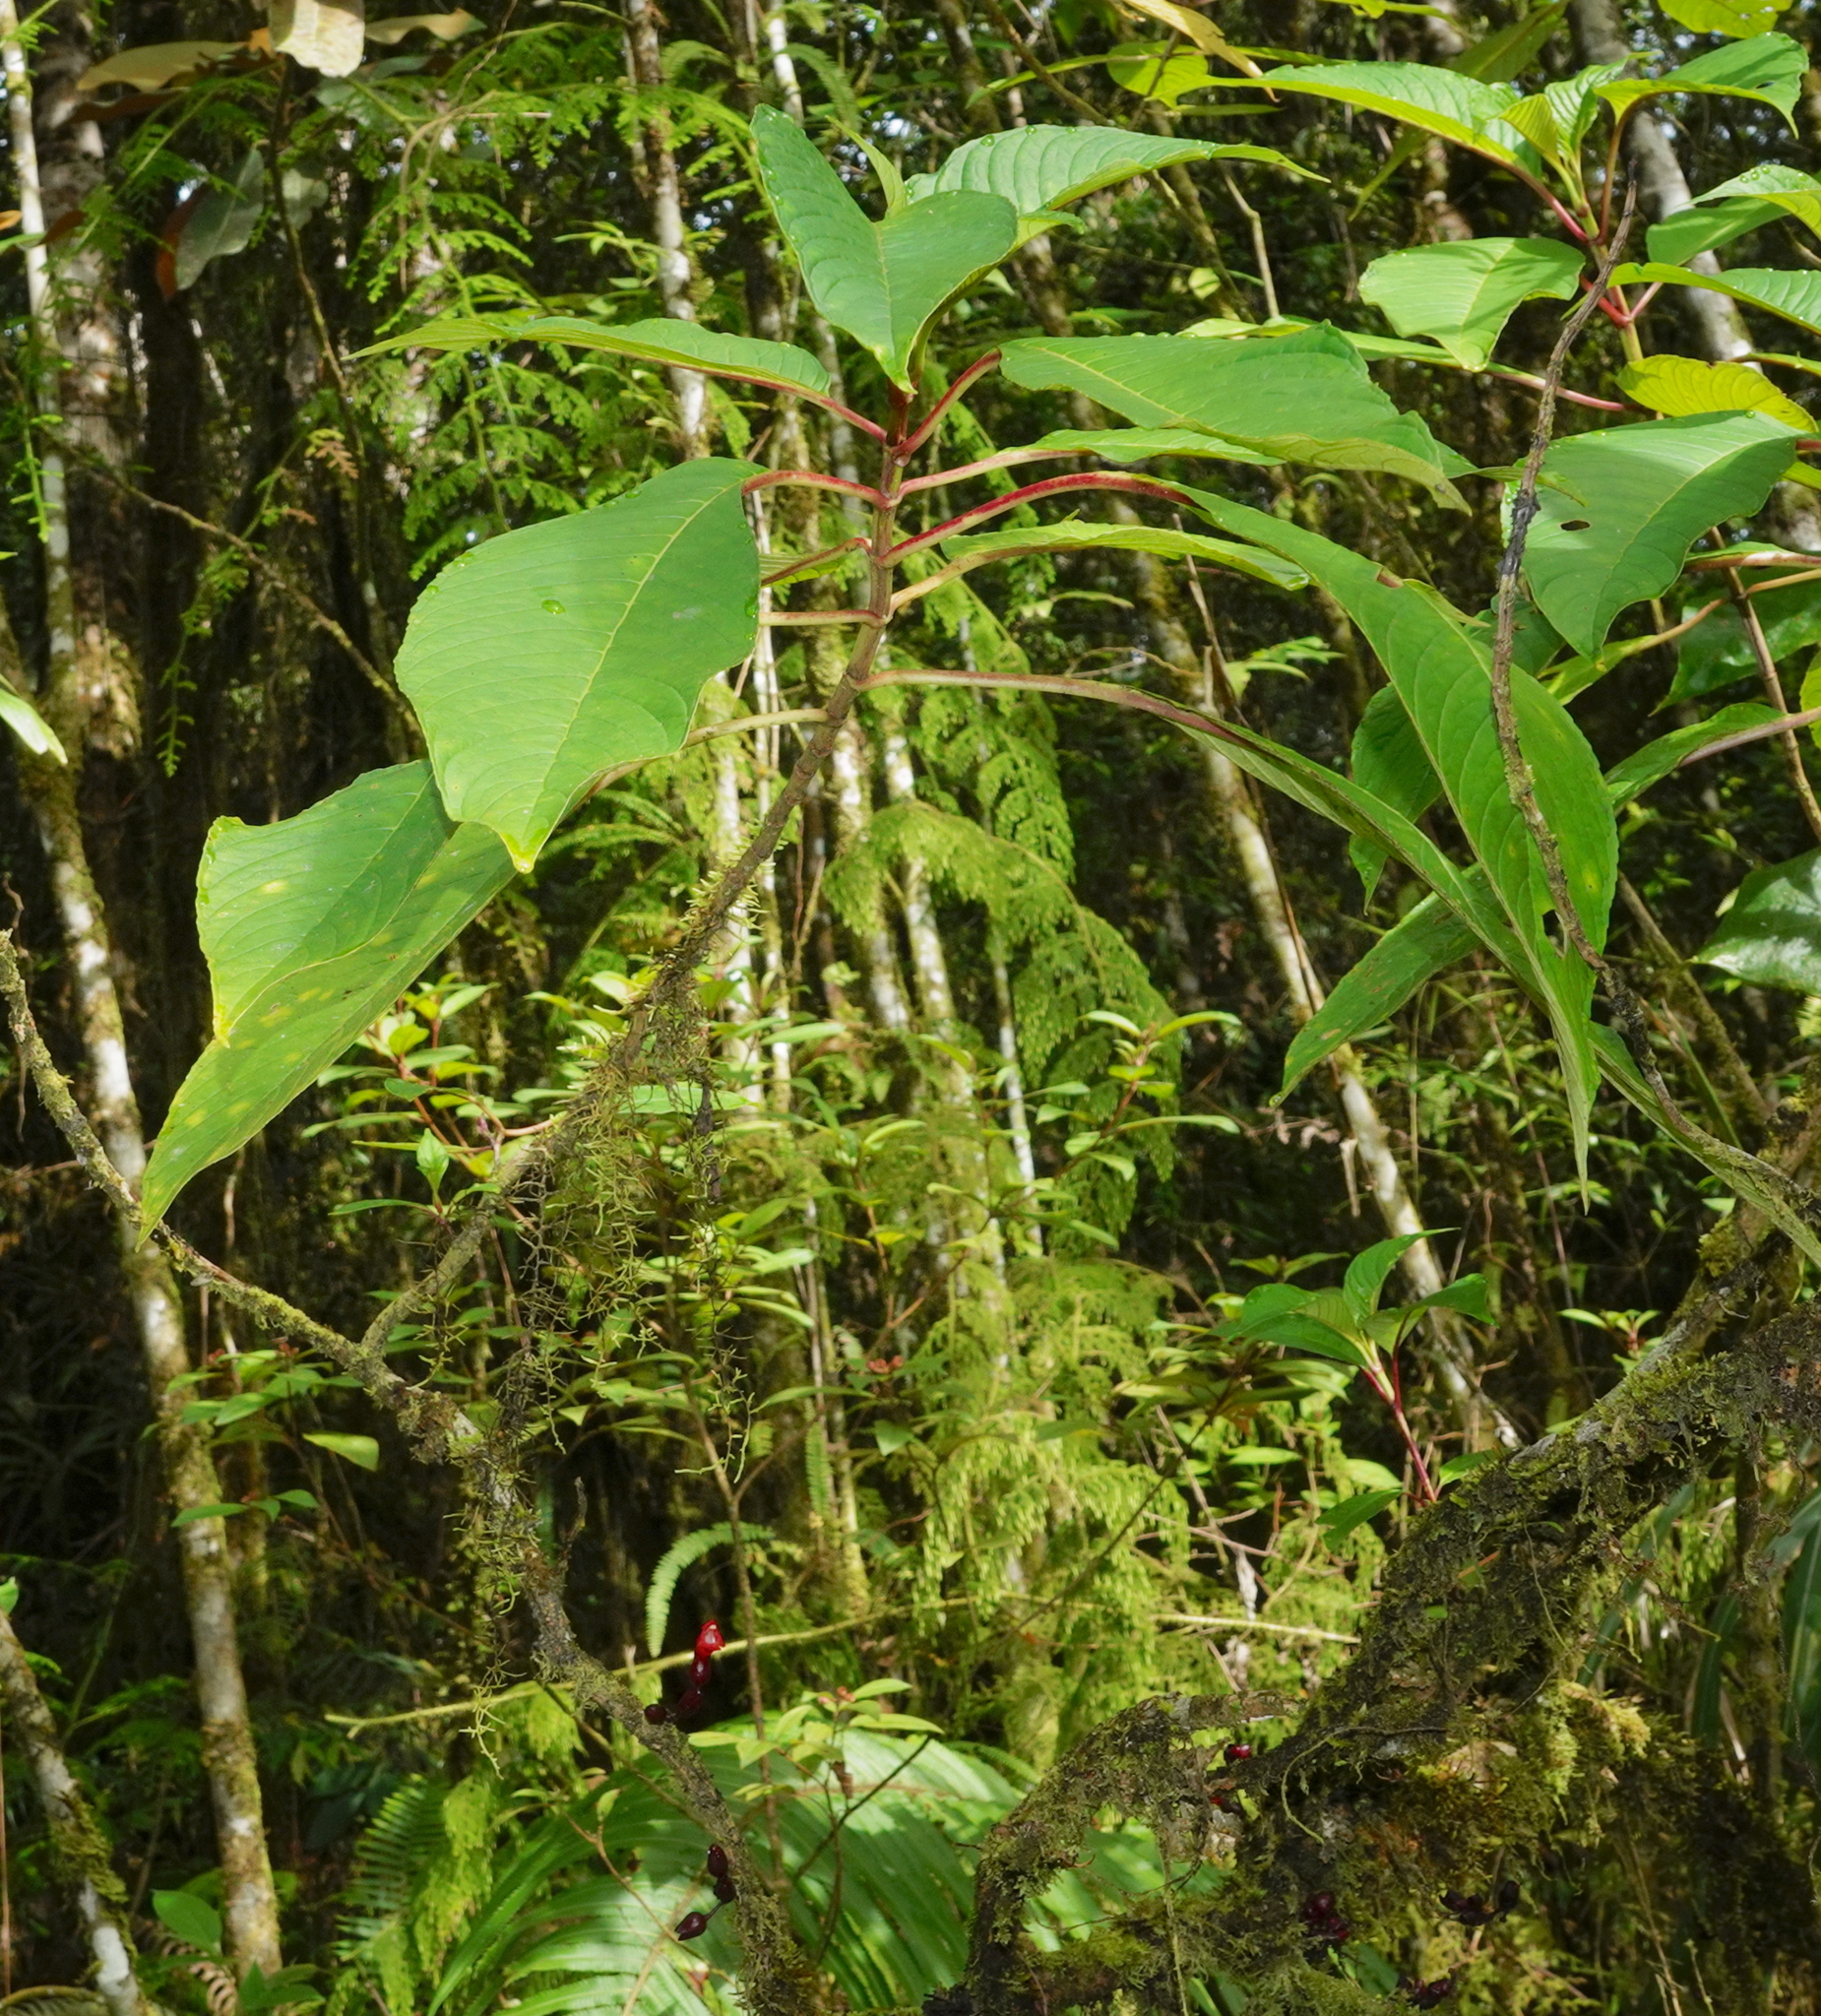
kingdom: Plantae
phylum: Tracheophyta
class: Magnoliopsida
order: Lamiales
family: Gesneriaceae
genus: Cyrtandra
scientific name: Cyrtandra coccinea
